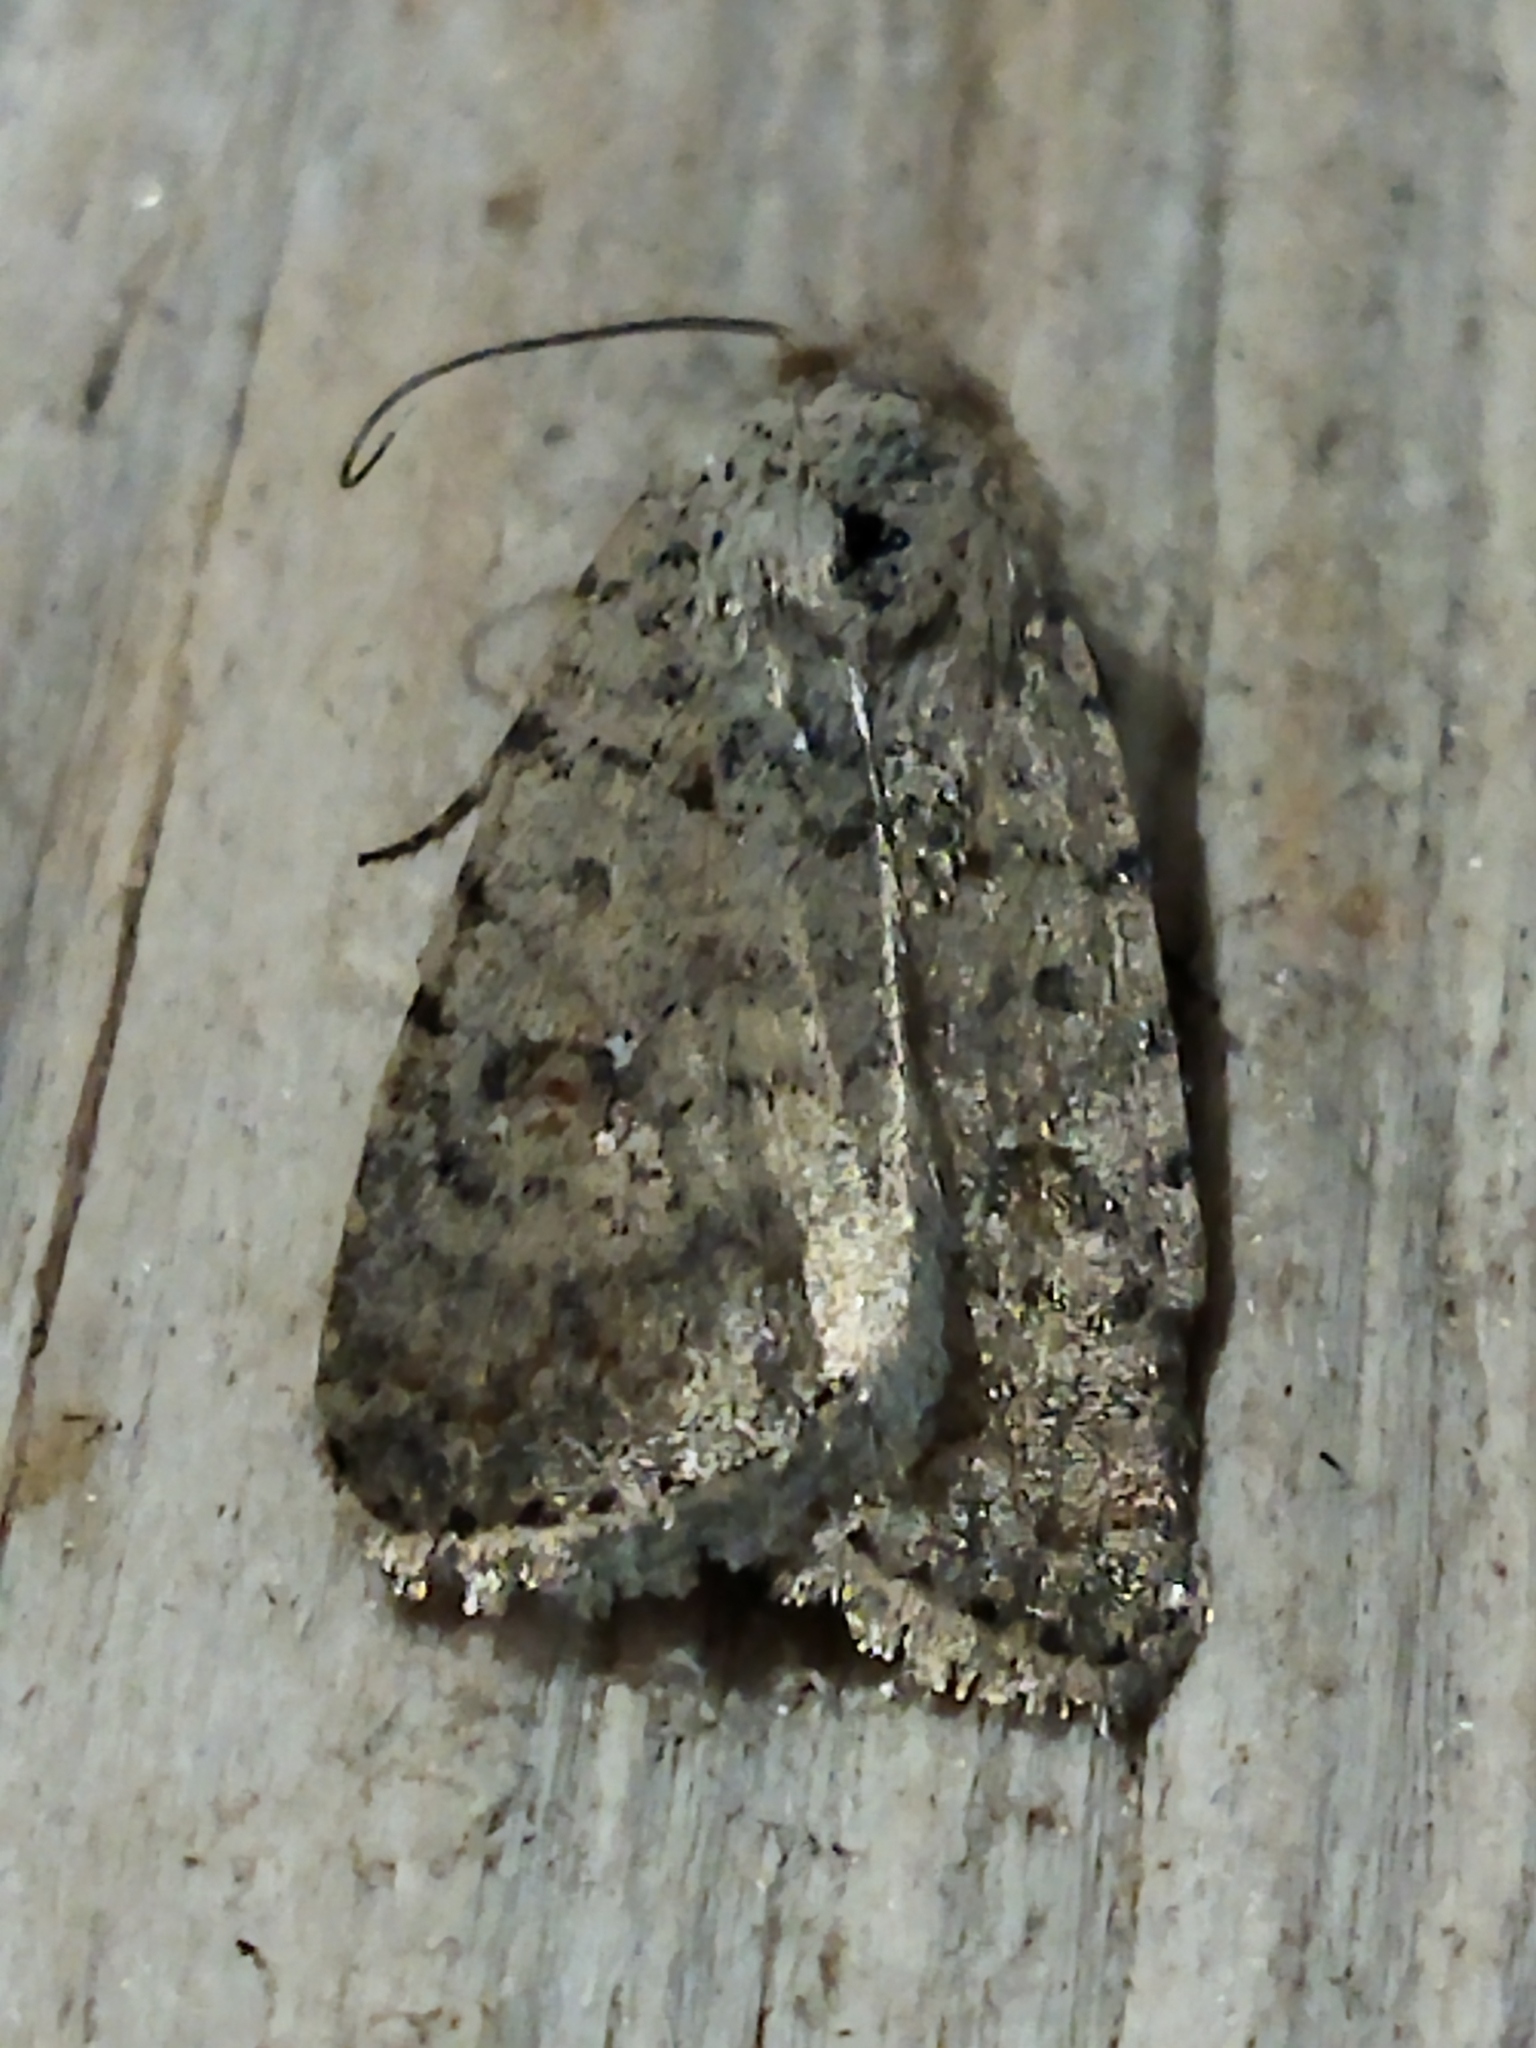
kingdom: Animalia
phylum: Arthropoda
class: Insecta
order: Lepidoptera
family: Noctuidae
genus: Caradrina
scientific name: Caradrina clavipalpis
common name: Pale mottled willow
